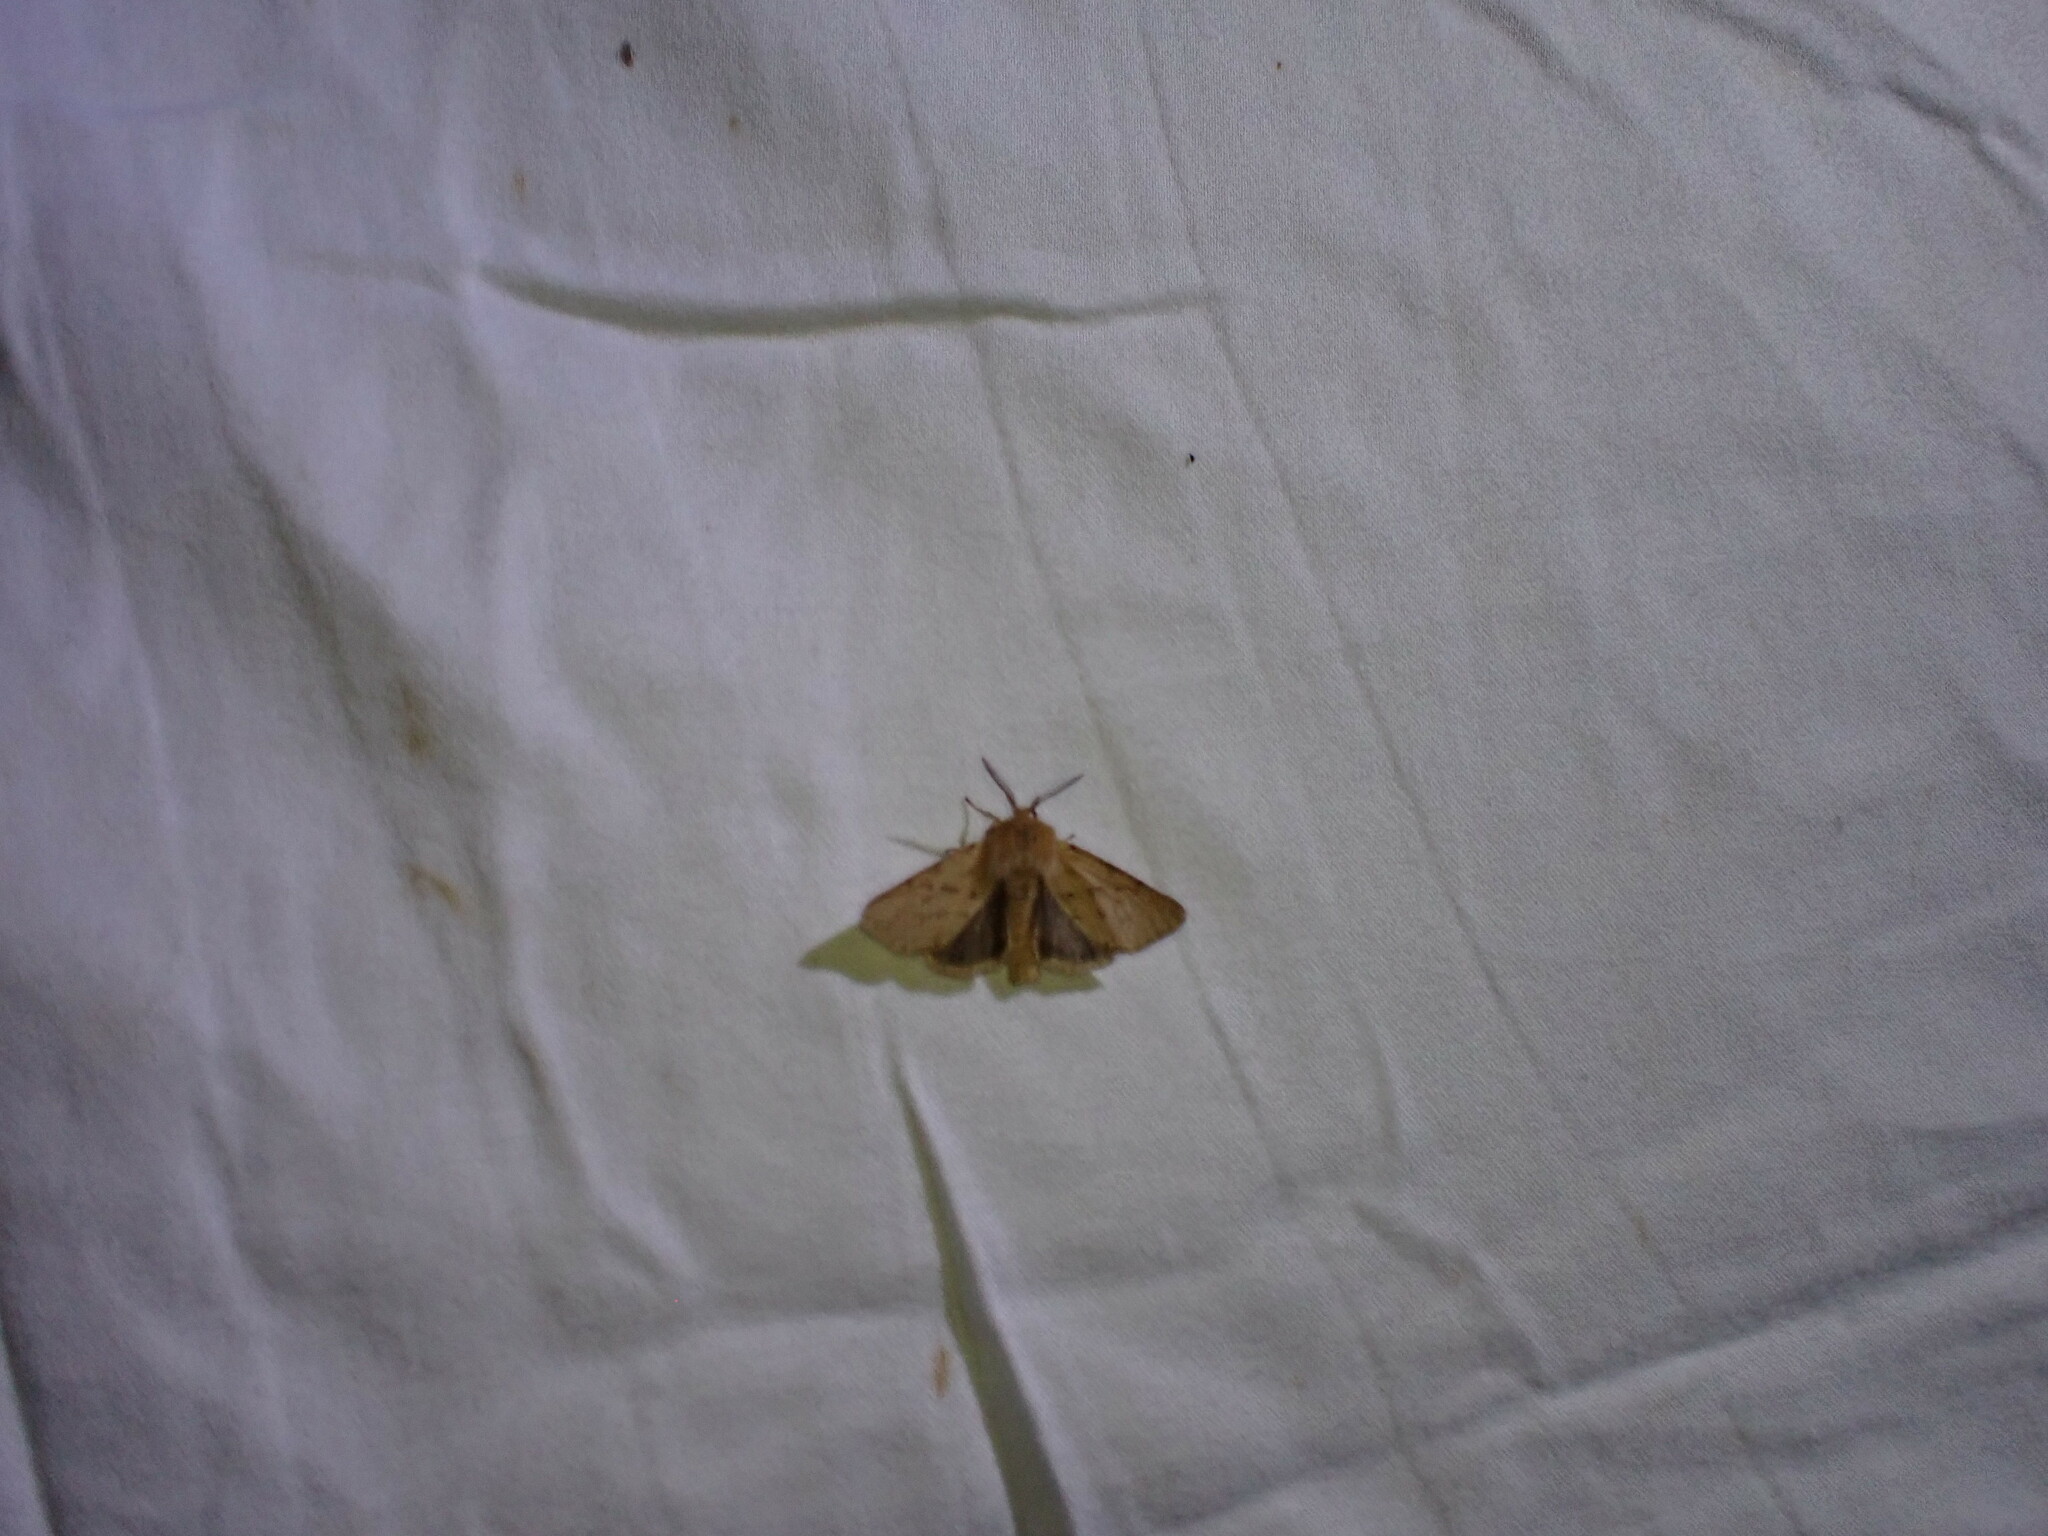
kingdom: Animalia
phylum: Arthropoda
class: Insecta
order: Lepidoptera
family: Erebidae
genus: Spilosoma
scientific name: Spilosoma vagans
